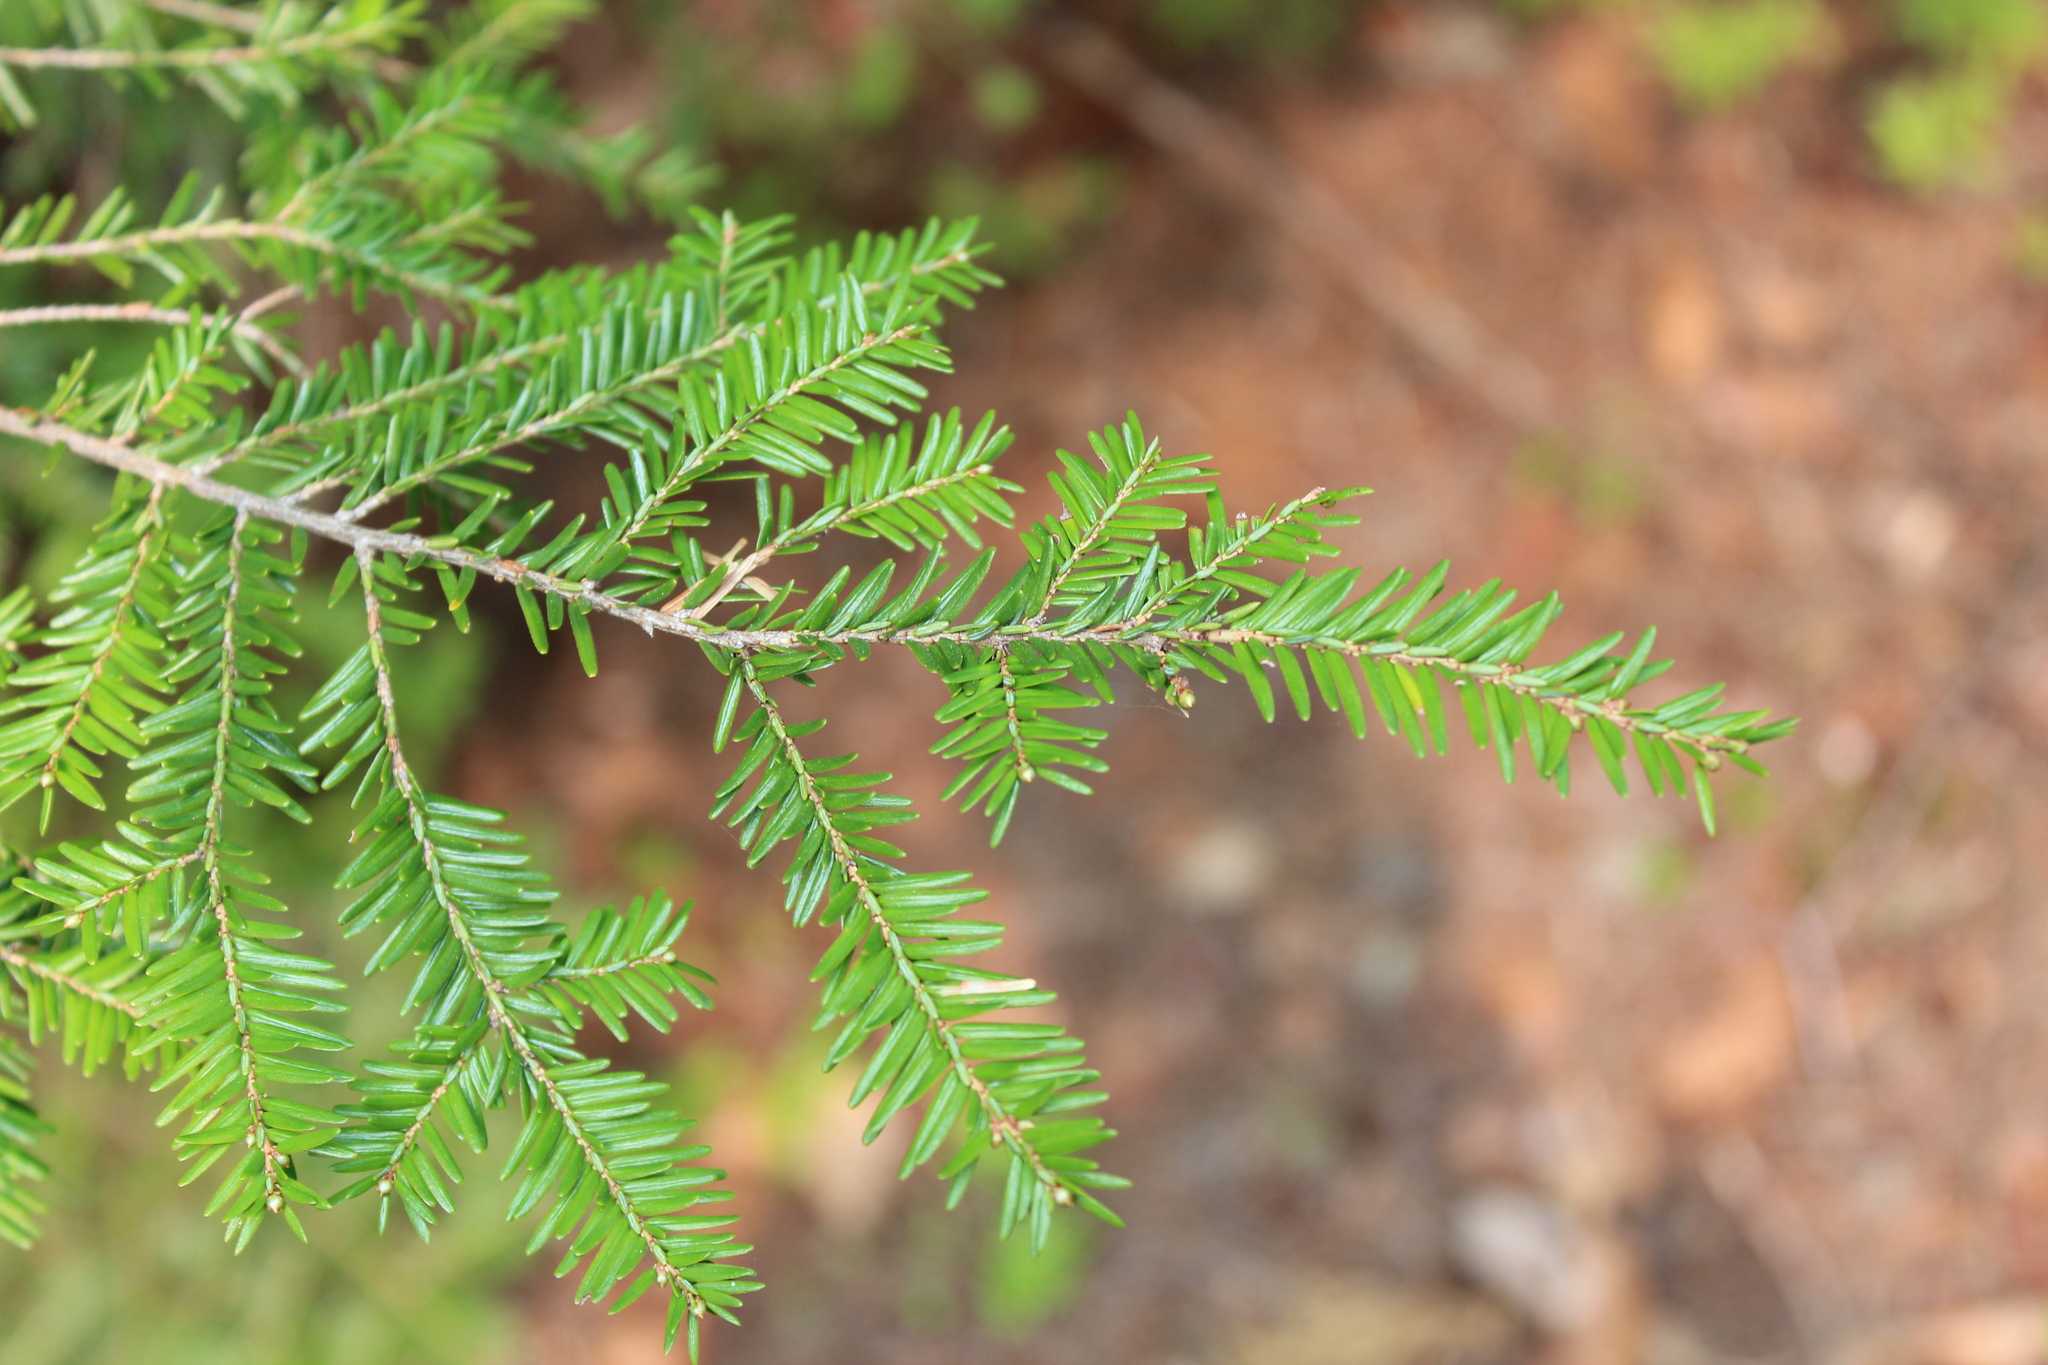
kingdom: Plantae
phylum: Tracheophyta
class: Pinopsida
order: Pinales
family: Pinaceae
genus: Tsuga
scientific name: Tsuga canadensis
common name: Eastern hemlock
